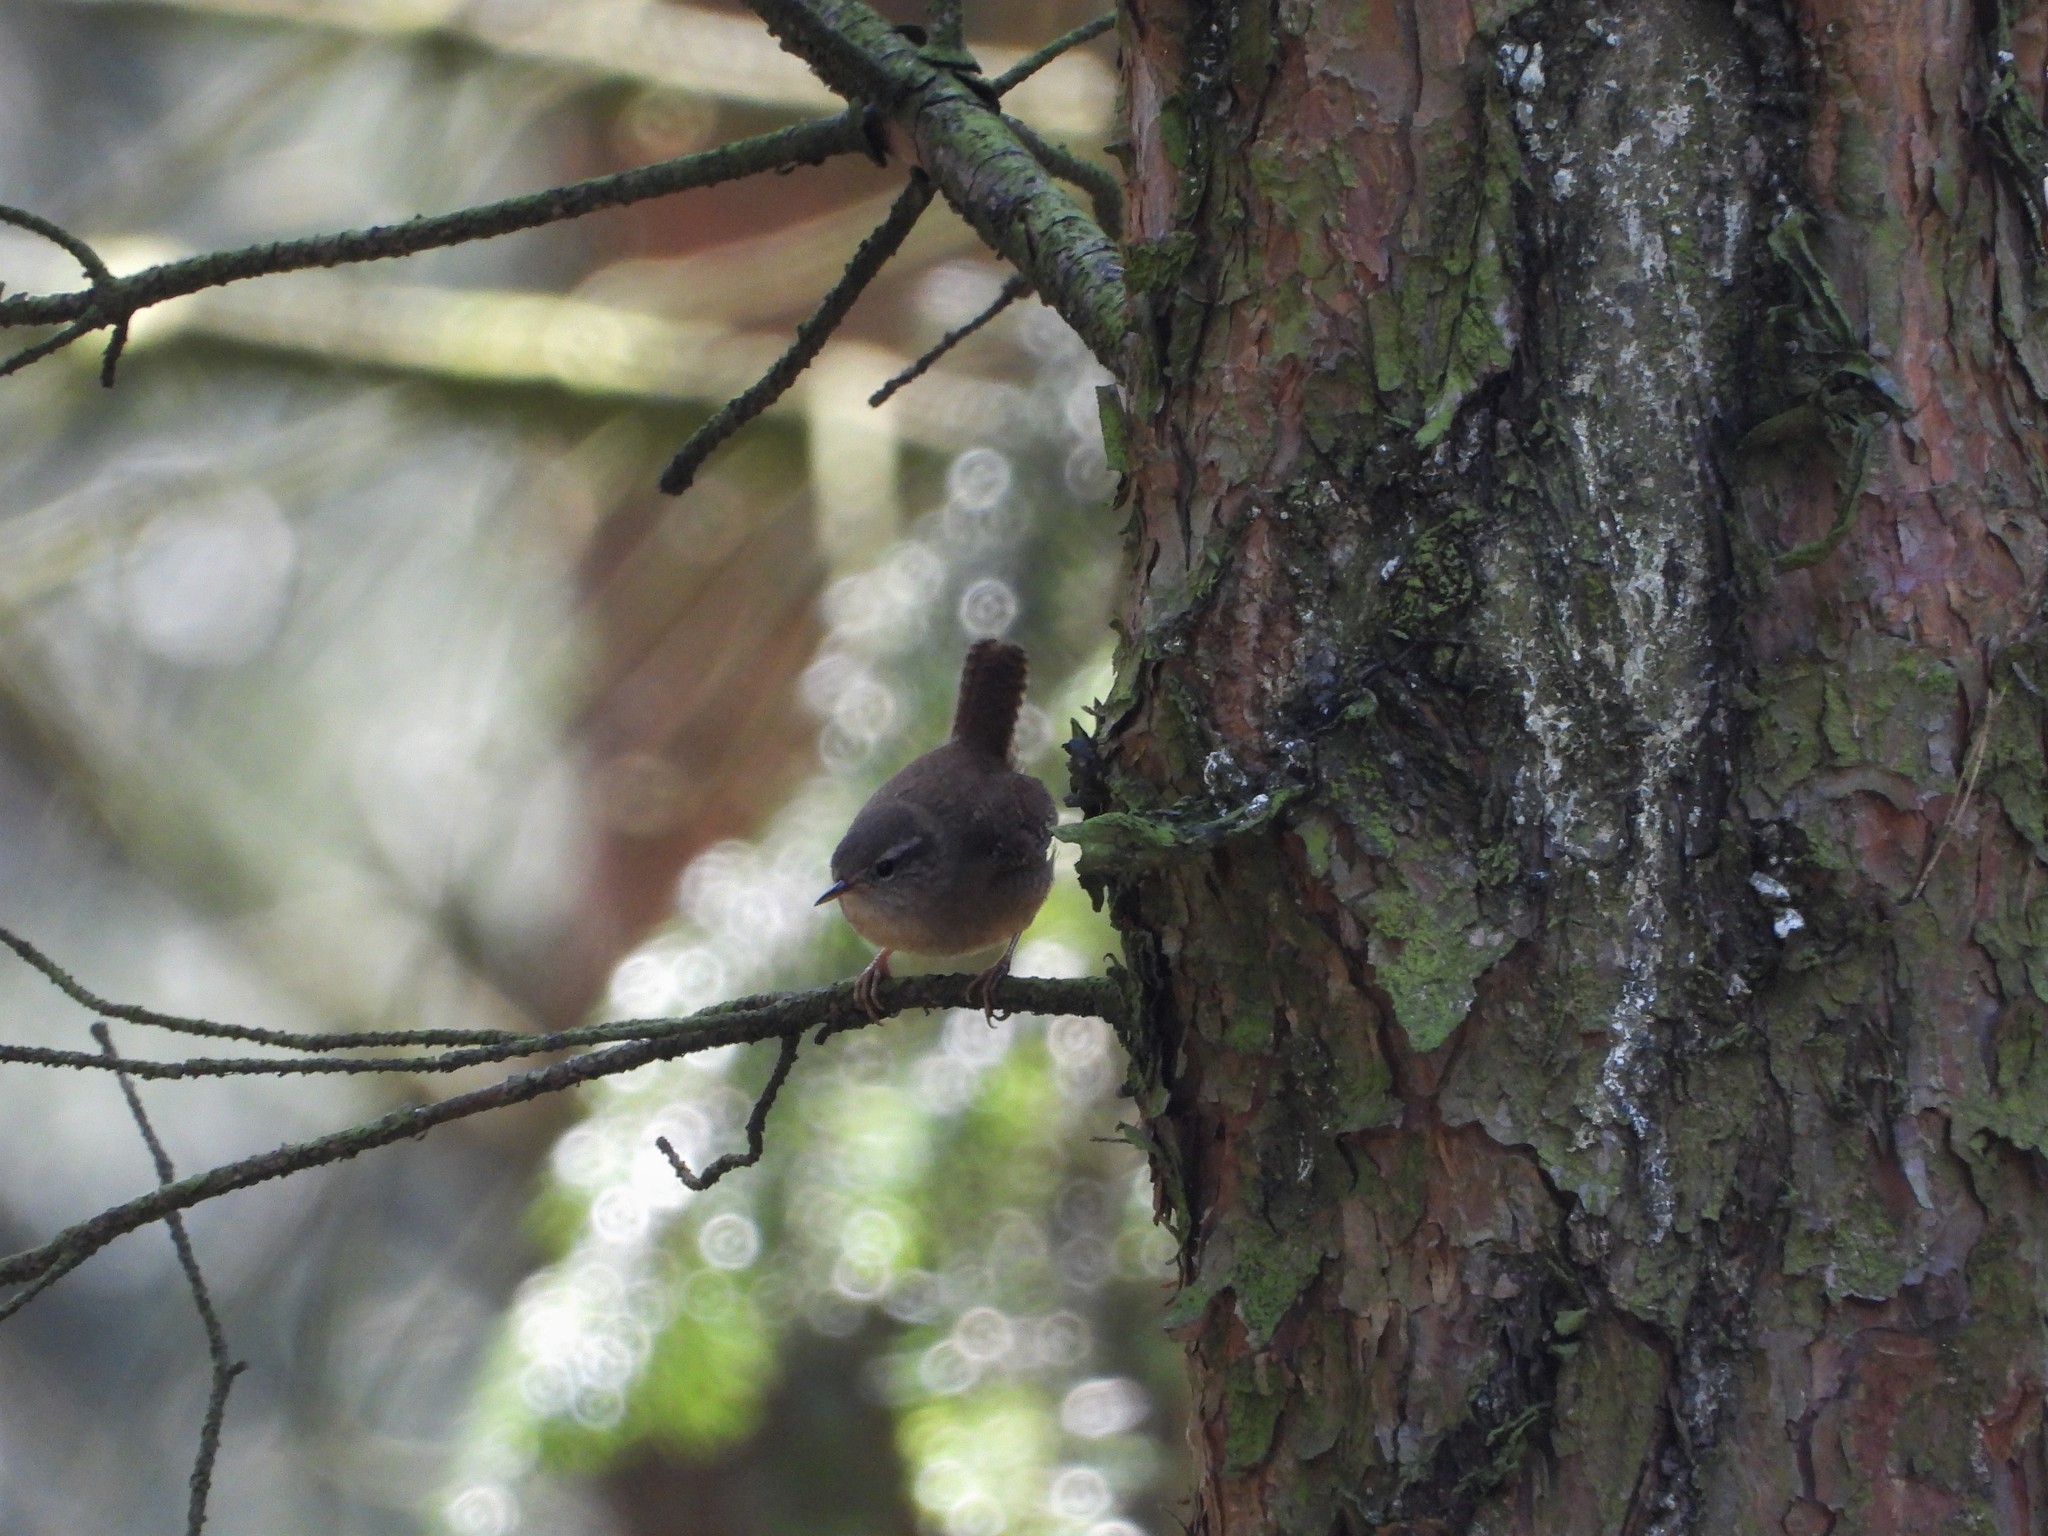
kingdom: Animalia
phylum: Chordata
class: Aves
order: Passeriformes
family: Troglodytidae
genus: Troglodytes
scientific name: Troglodytes troglodytes
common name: Eurasian wren
